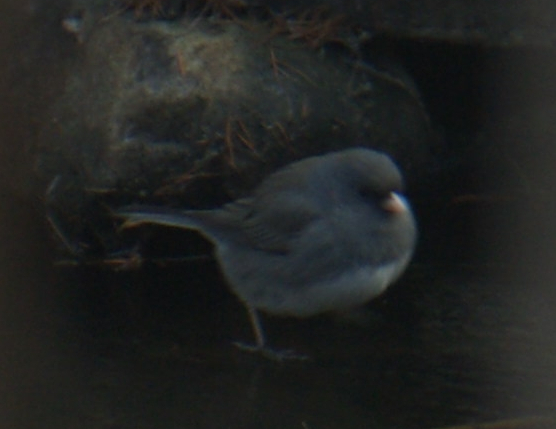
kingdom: Animalia
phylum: Chordata
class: Aves
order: Passeriformes
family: Passerellidae
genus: Junco
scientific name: Junco hyemalis
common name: Dark-eyed junco
